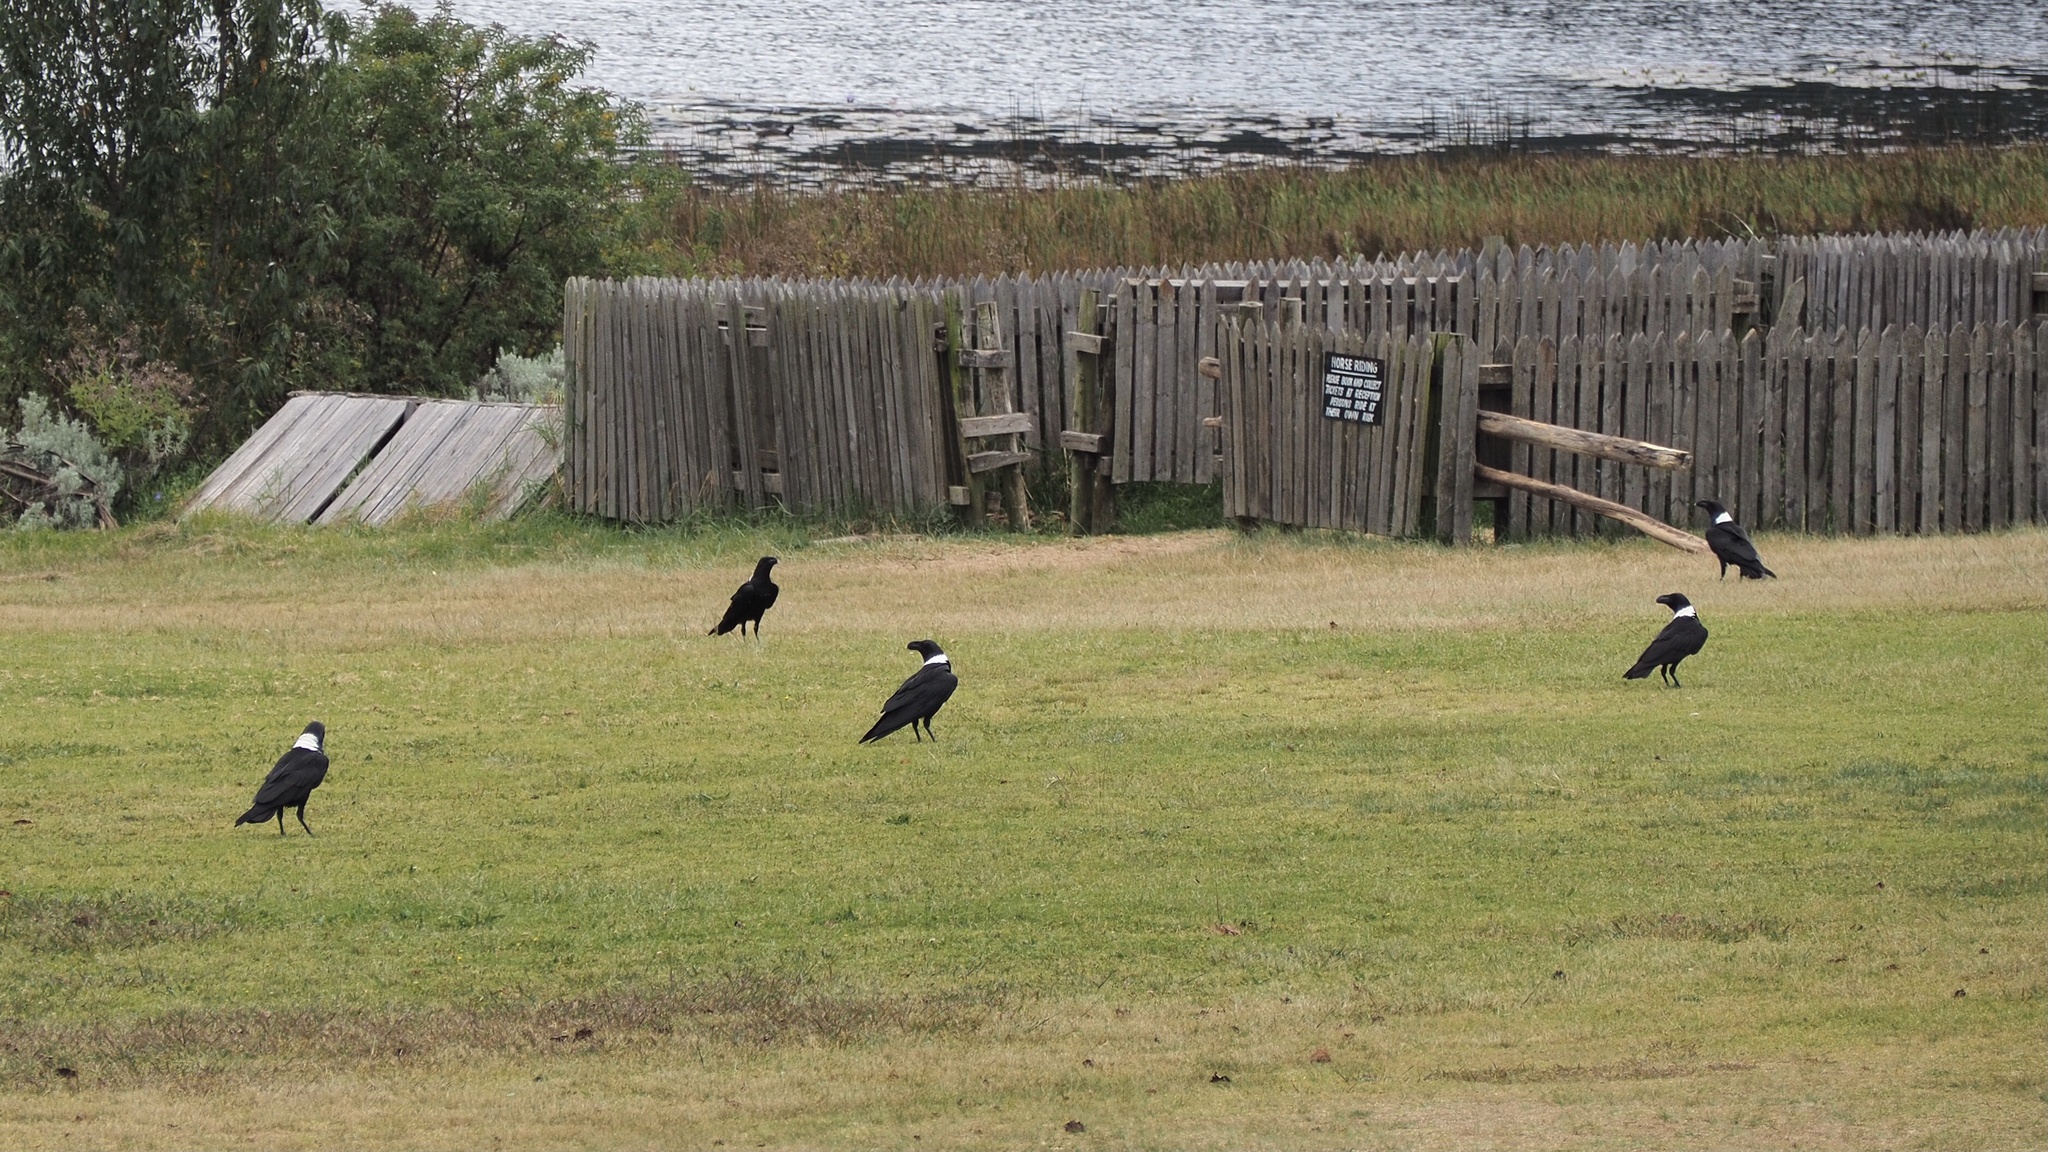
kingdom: Animalia
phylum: Chordata
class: Aves
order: Passeriformes
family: Corvidae
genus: Corvus
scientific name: Corvus albicollis
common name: White-necked raven
